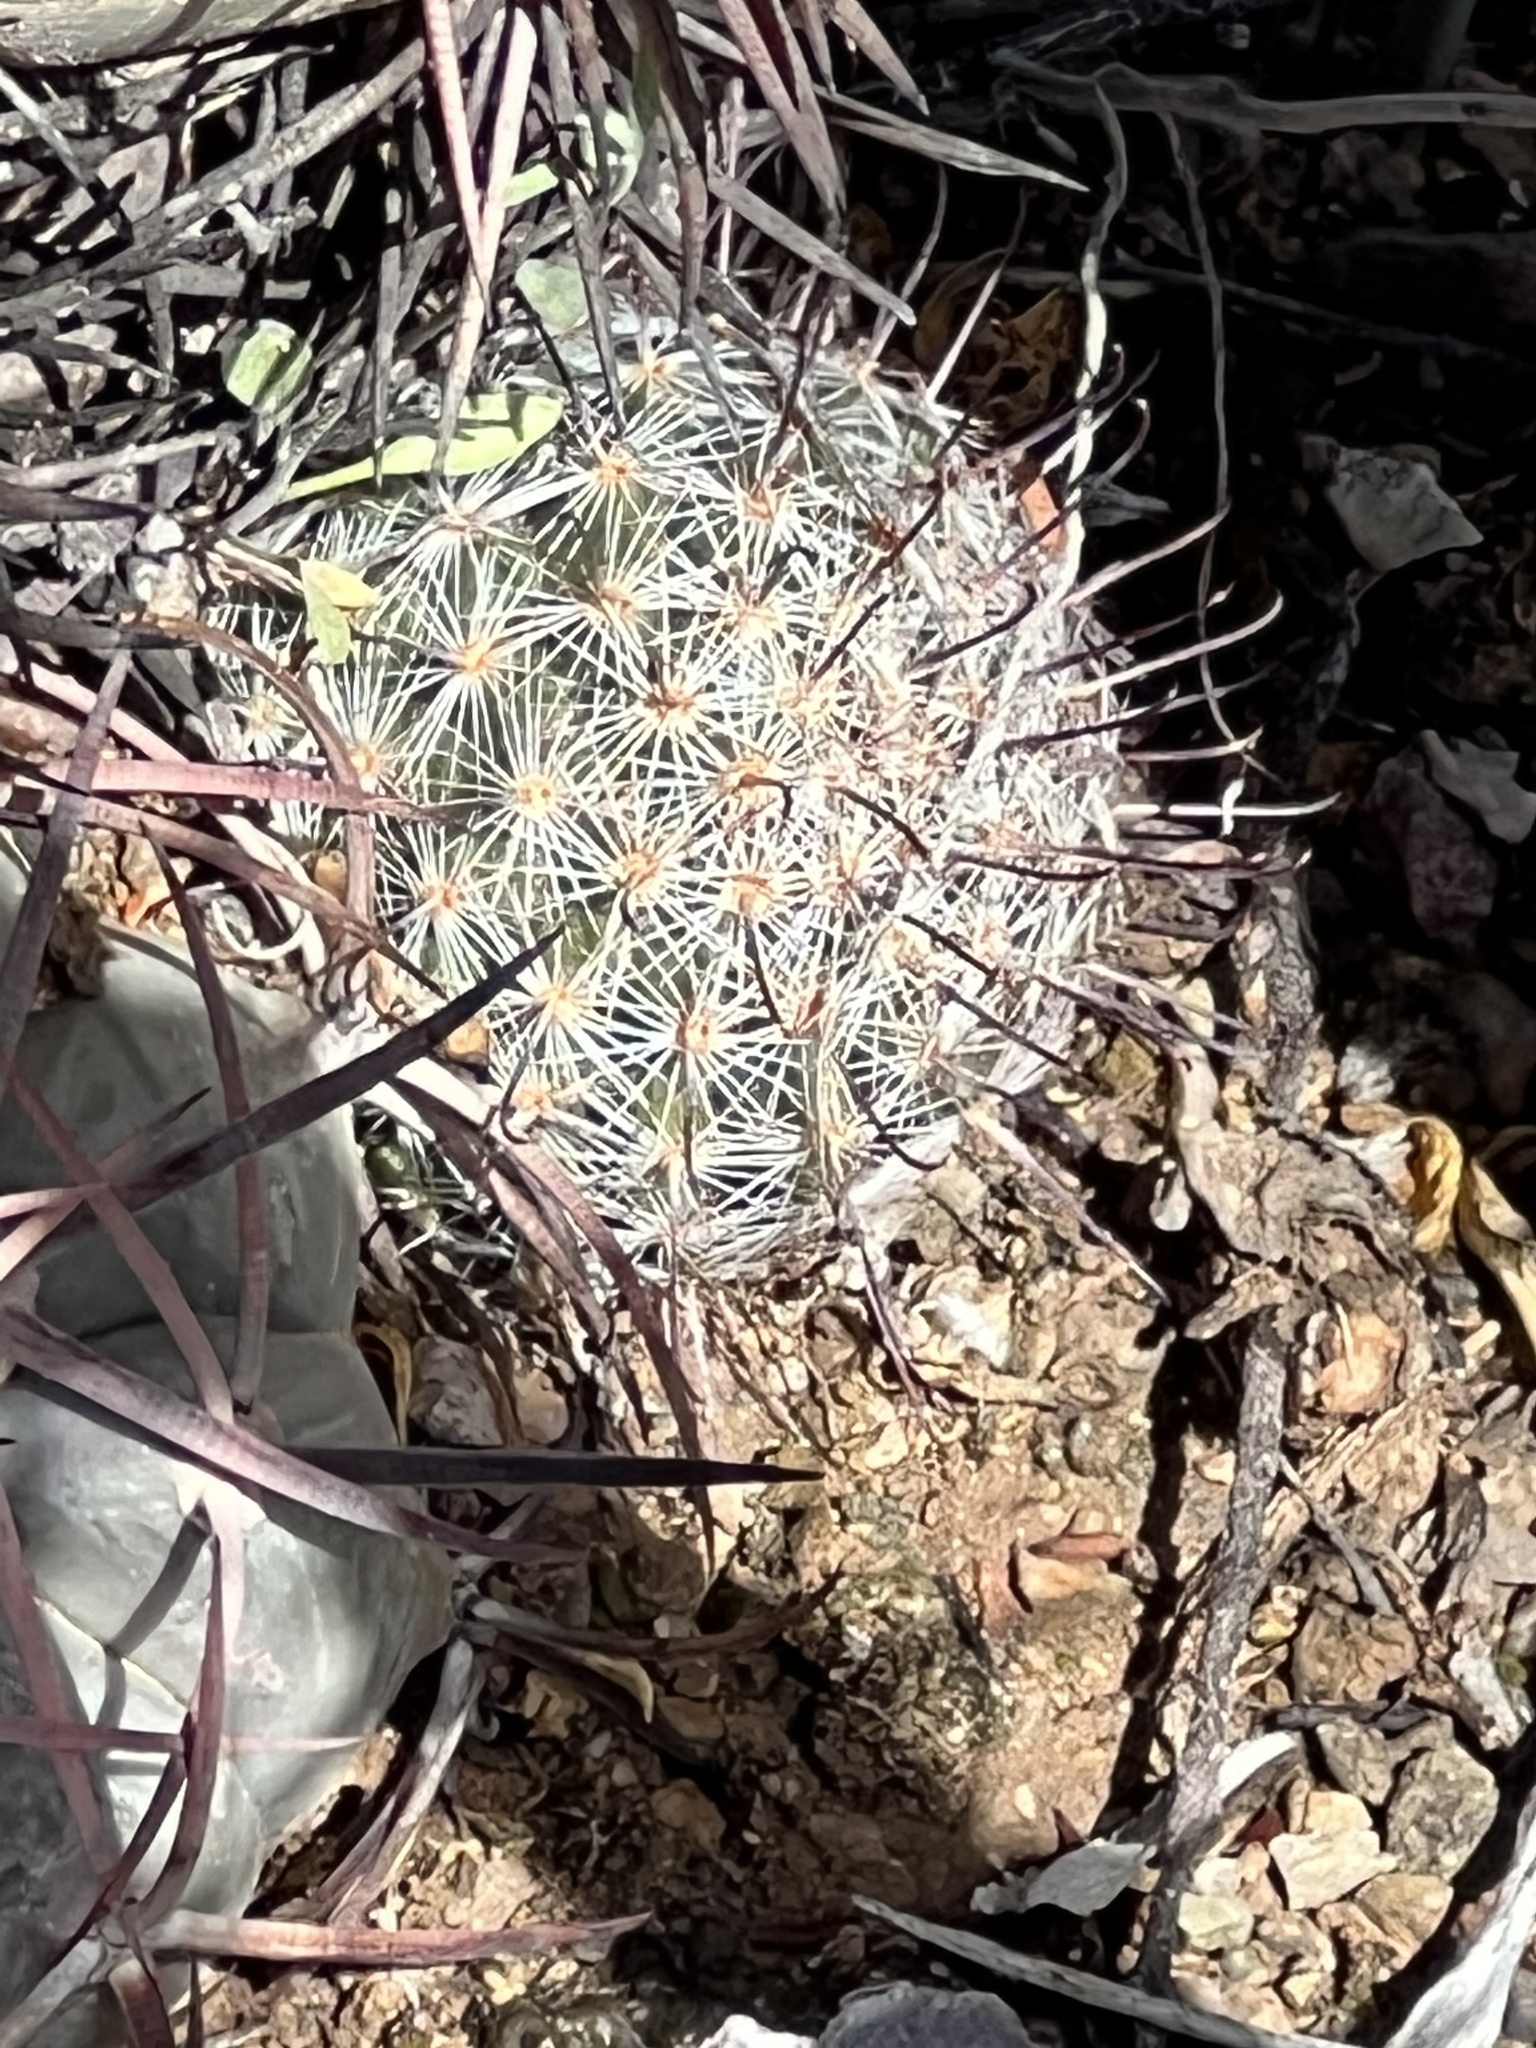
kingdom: Plantae
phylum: Tracheophyta
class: Magnoliopsida
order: Caryophyllales
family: Cactaceae
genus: Cochemiea
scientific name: Cochemiea grahamii
